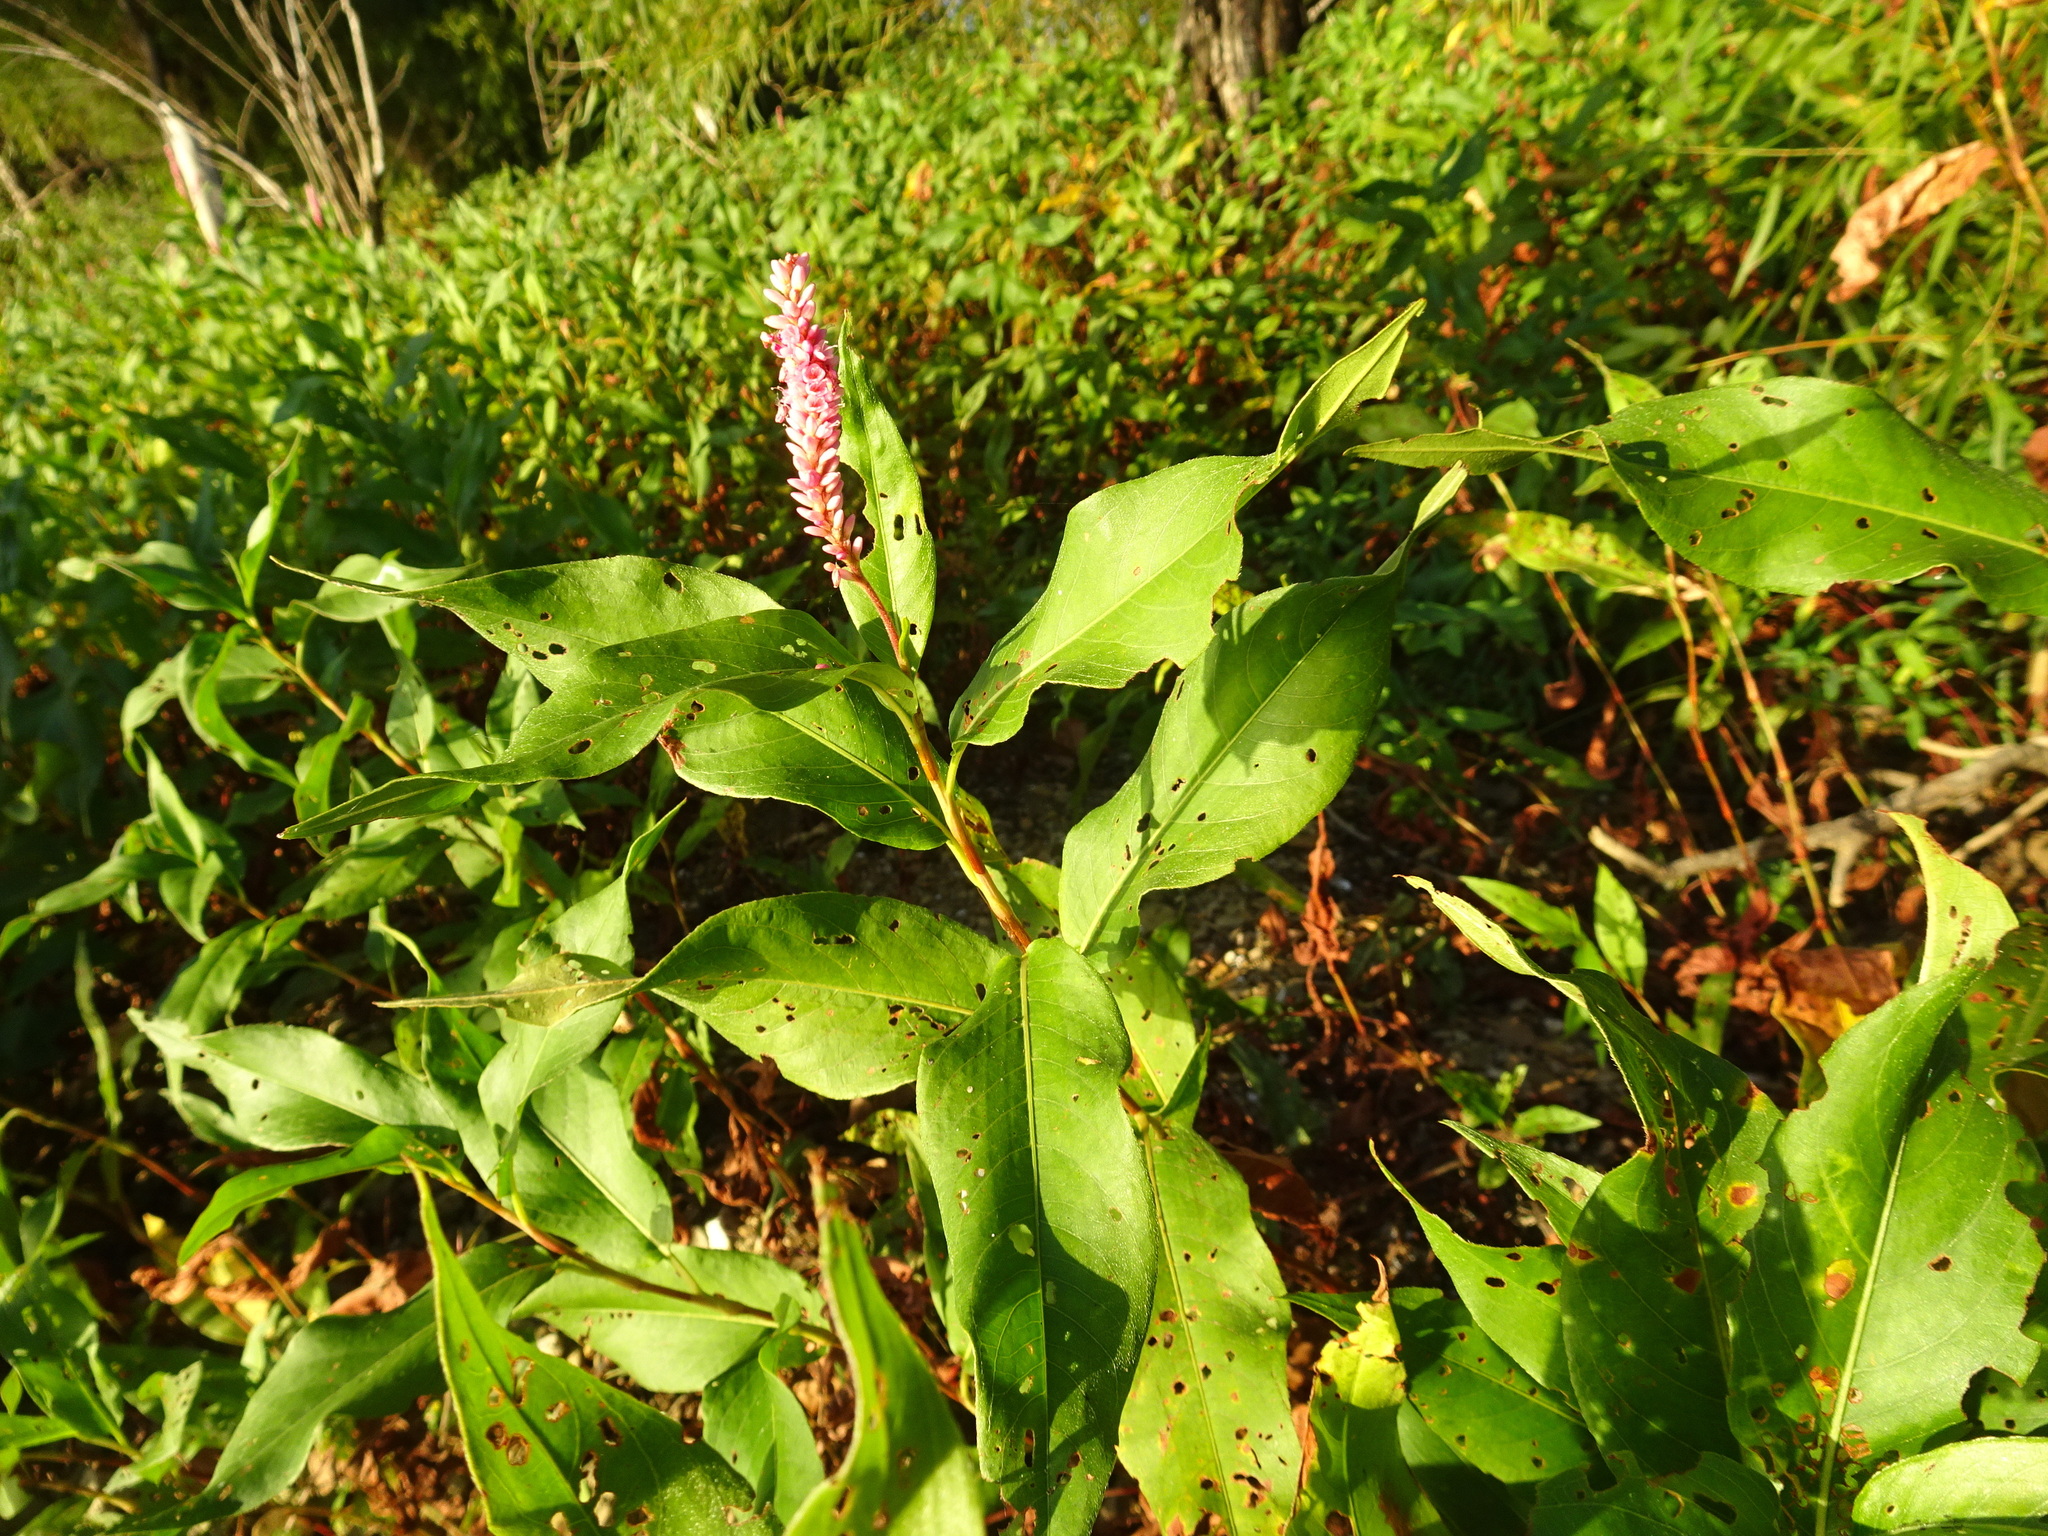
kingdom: Plantae
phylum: Tracheophyta
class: Magnoliopsida
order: Caryophyllales
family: Polygonaceae
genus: Persicaria
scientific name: Persicaria amphibia
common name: Amphibious bistort
